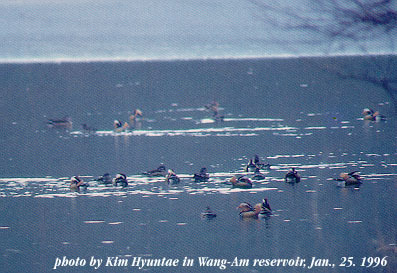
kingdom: Animalia
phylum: Chordata
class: Aves
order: Anseriformes
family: Anatidae
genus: Aix
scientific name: Aix galericulata
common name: Mandarin duck
